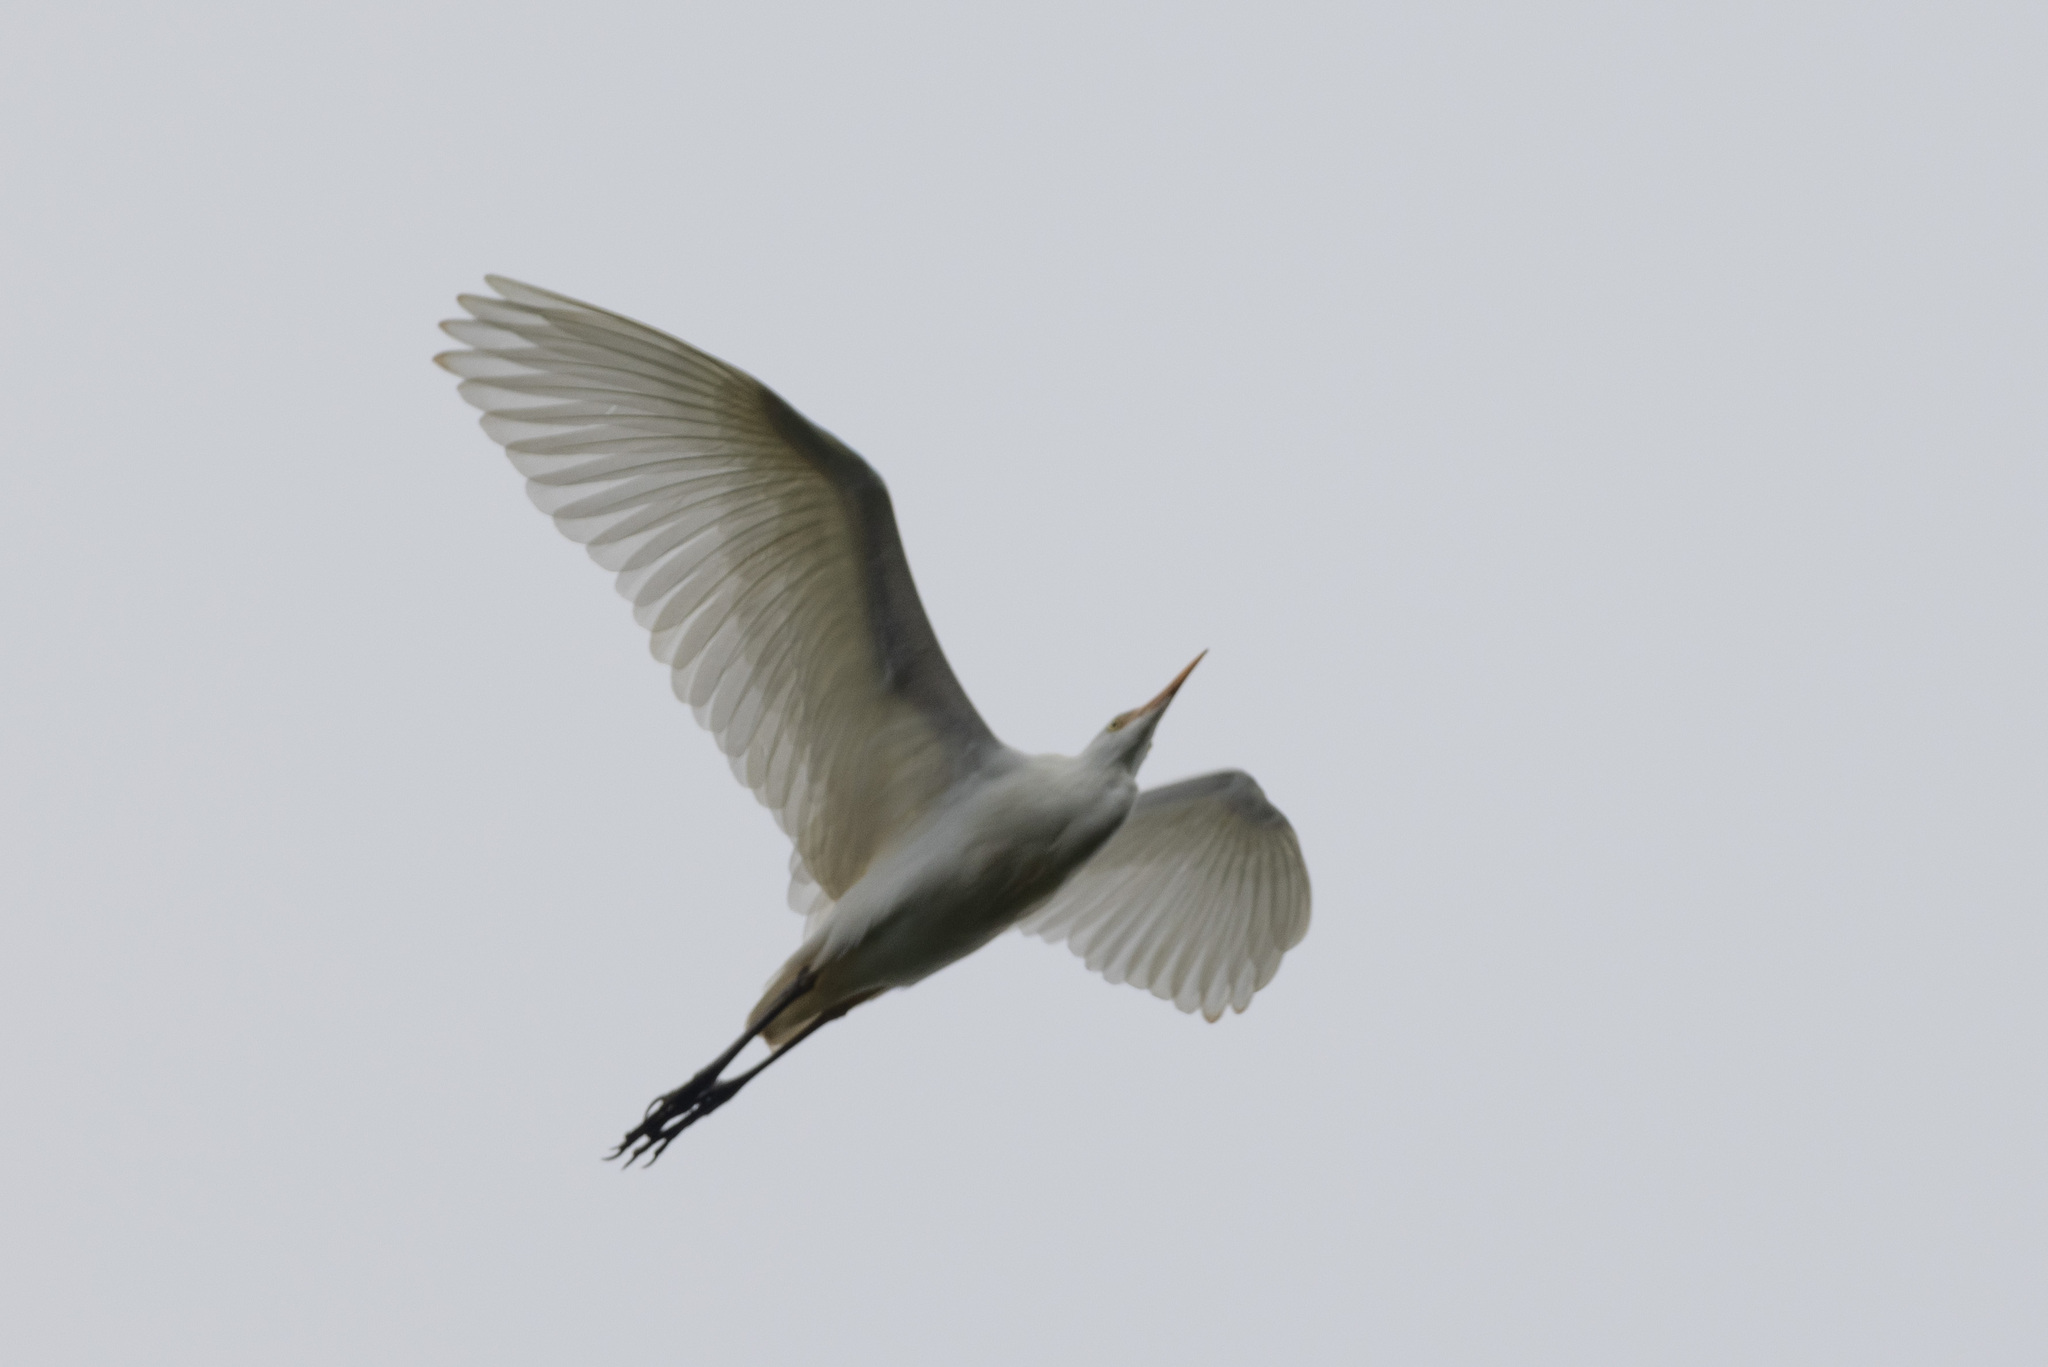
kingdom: Animalia
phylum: Chordata
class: Aves
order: Pelecaniformes
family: Ardeidae
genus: Bubulcus
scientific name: Bubulcus ibis
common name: Cattle egret
